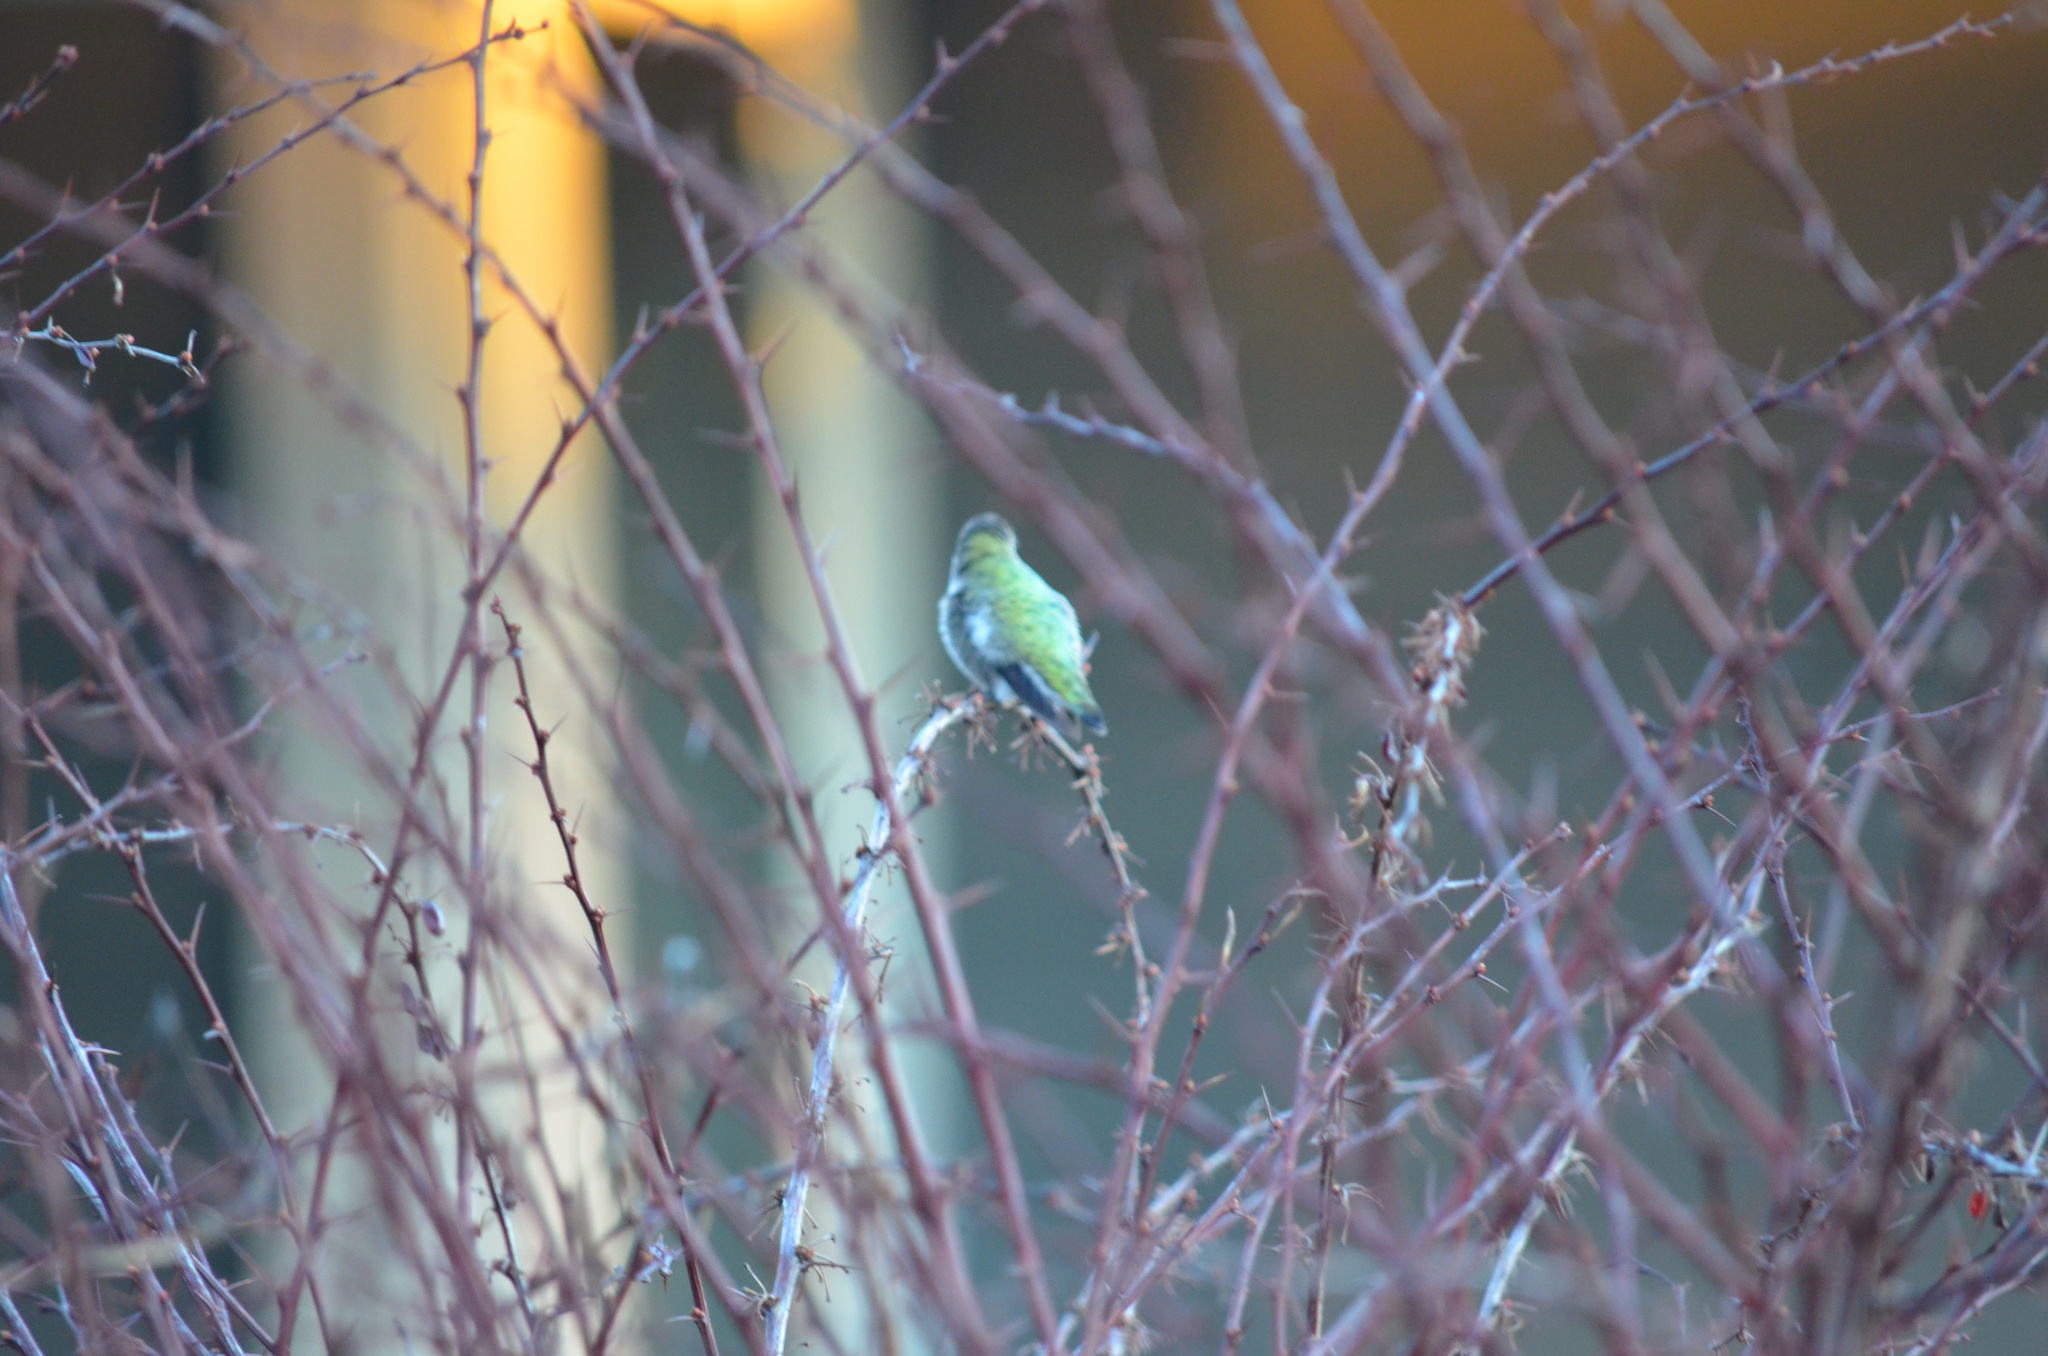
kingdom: Animalia
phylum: Chordata
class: Aves
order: Apodiformes
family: Trochilidae
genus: Calypte
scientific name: Calypte anna
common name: Anna's hummingbird
